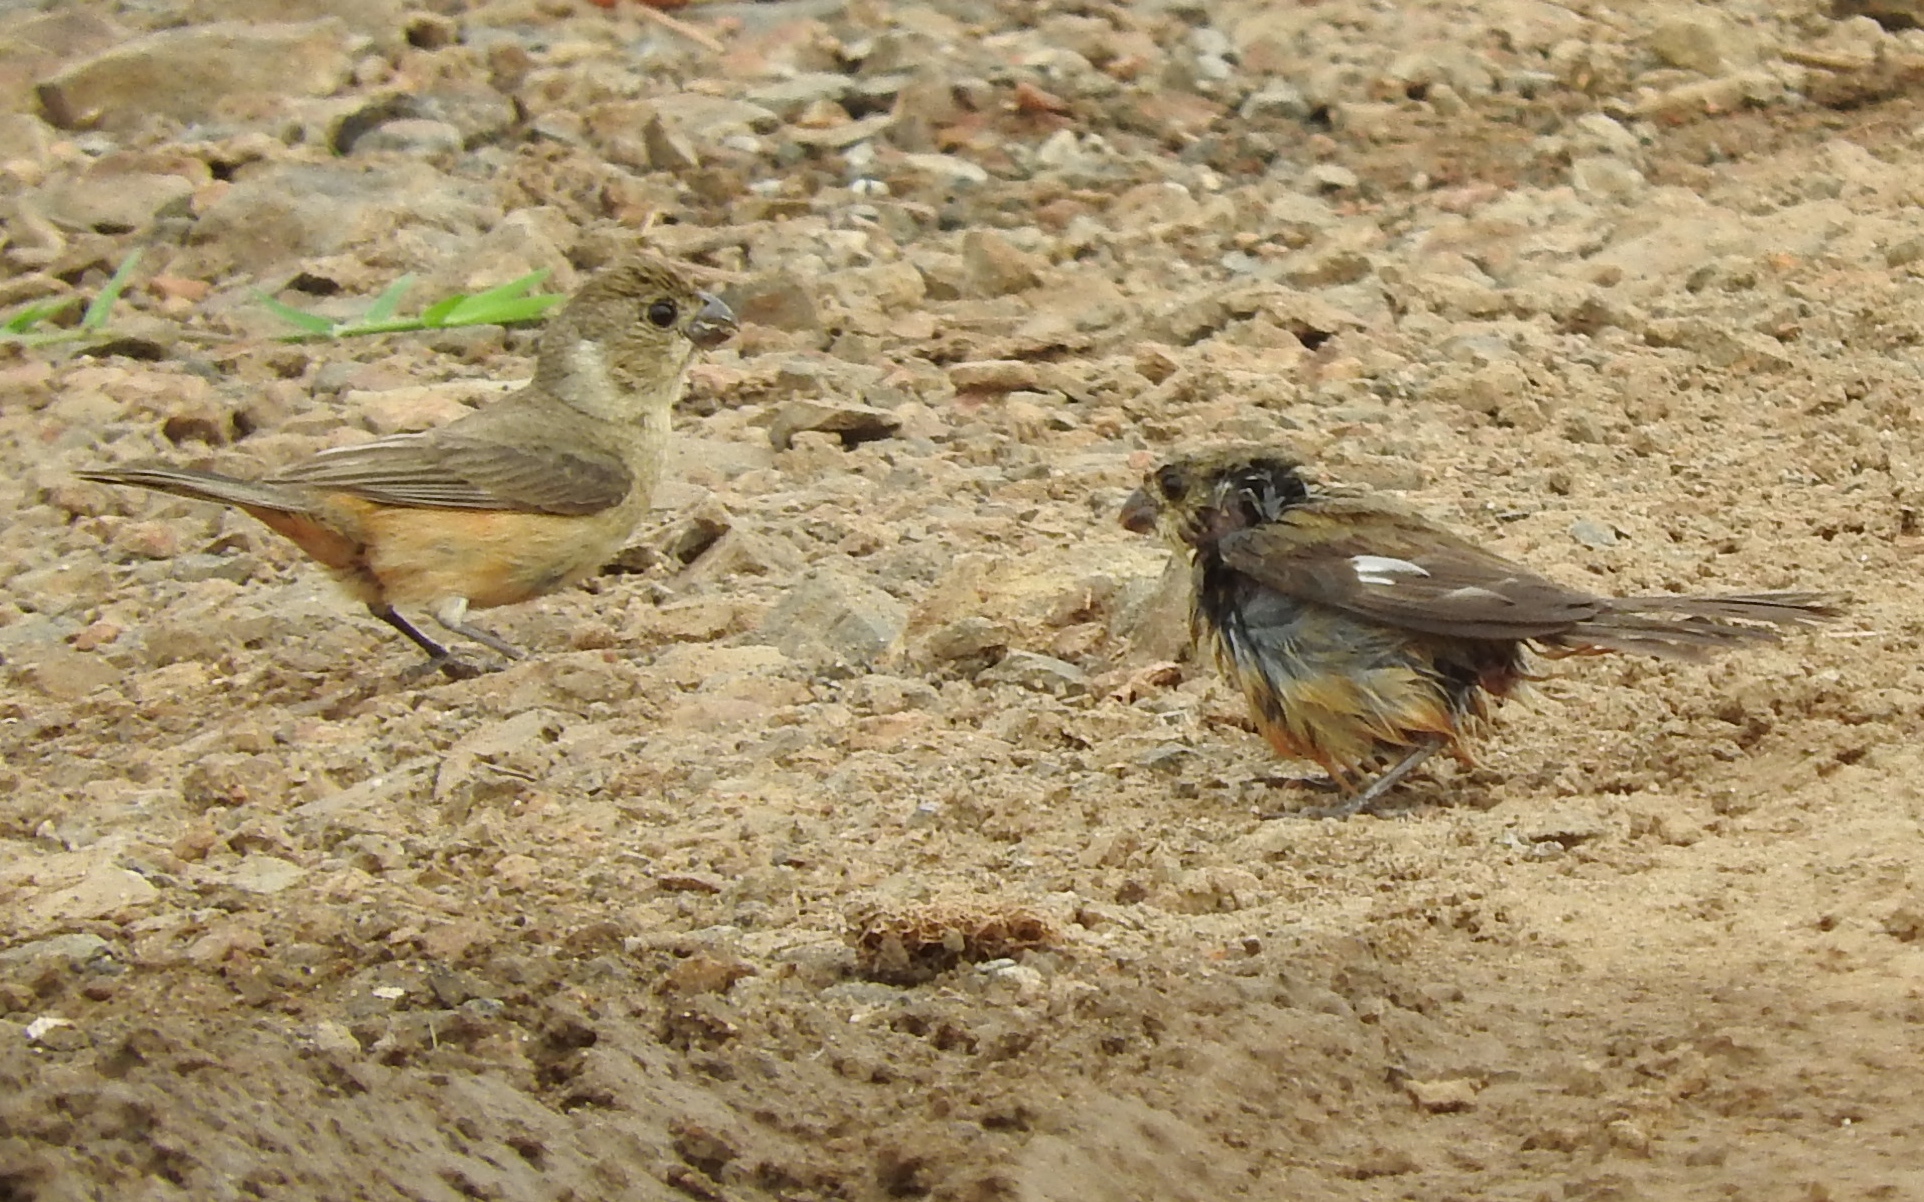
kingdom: Animalia
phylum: Chordata
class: Aves
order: Passeriformes
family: Thraupidae
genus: Sporophila
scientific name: Sporophila torqueola
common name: White-collared seedeater
